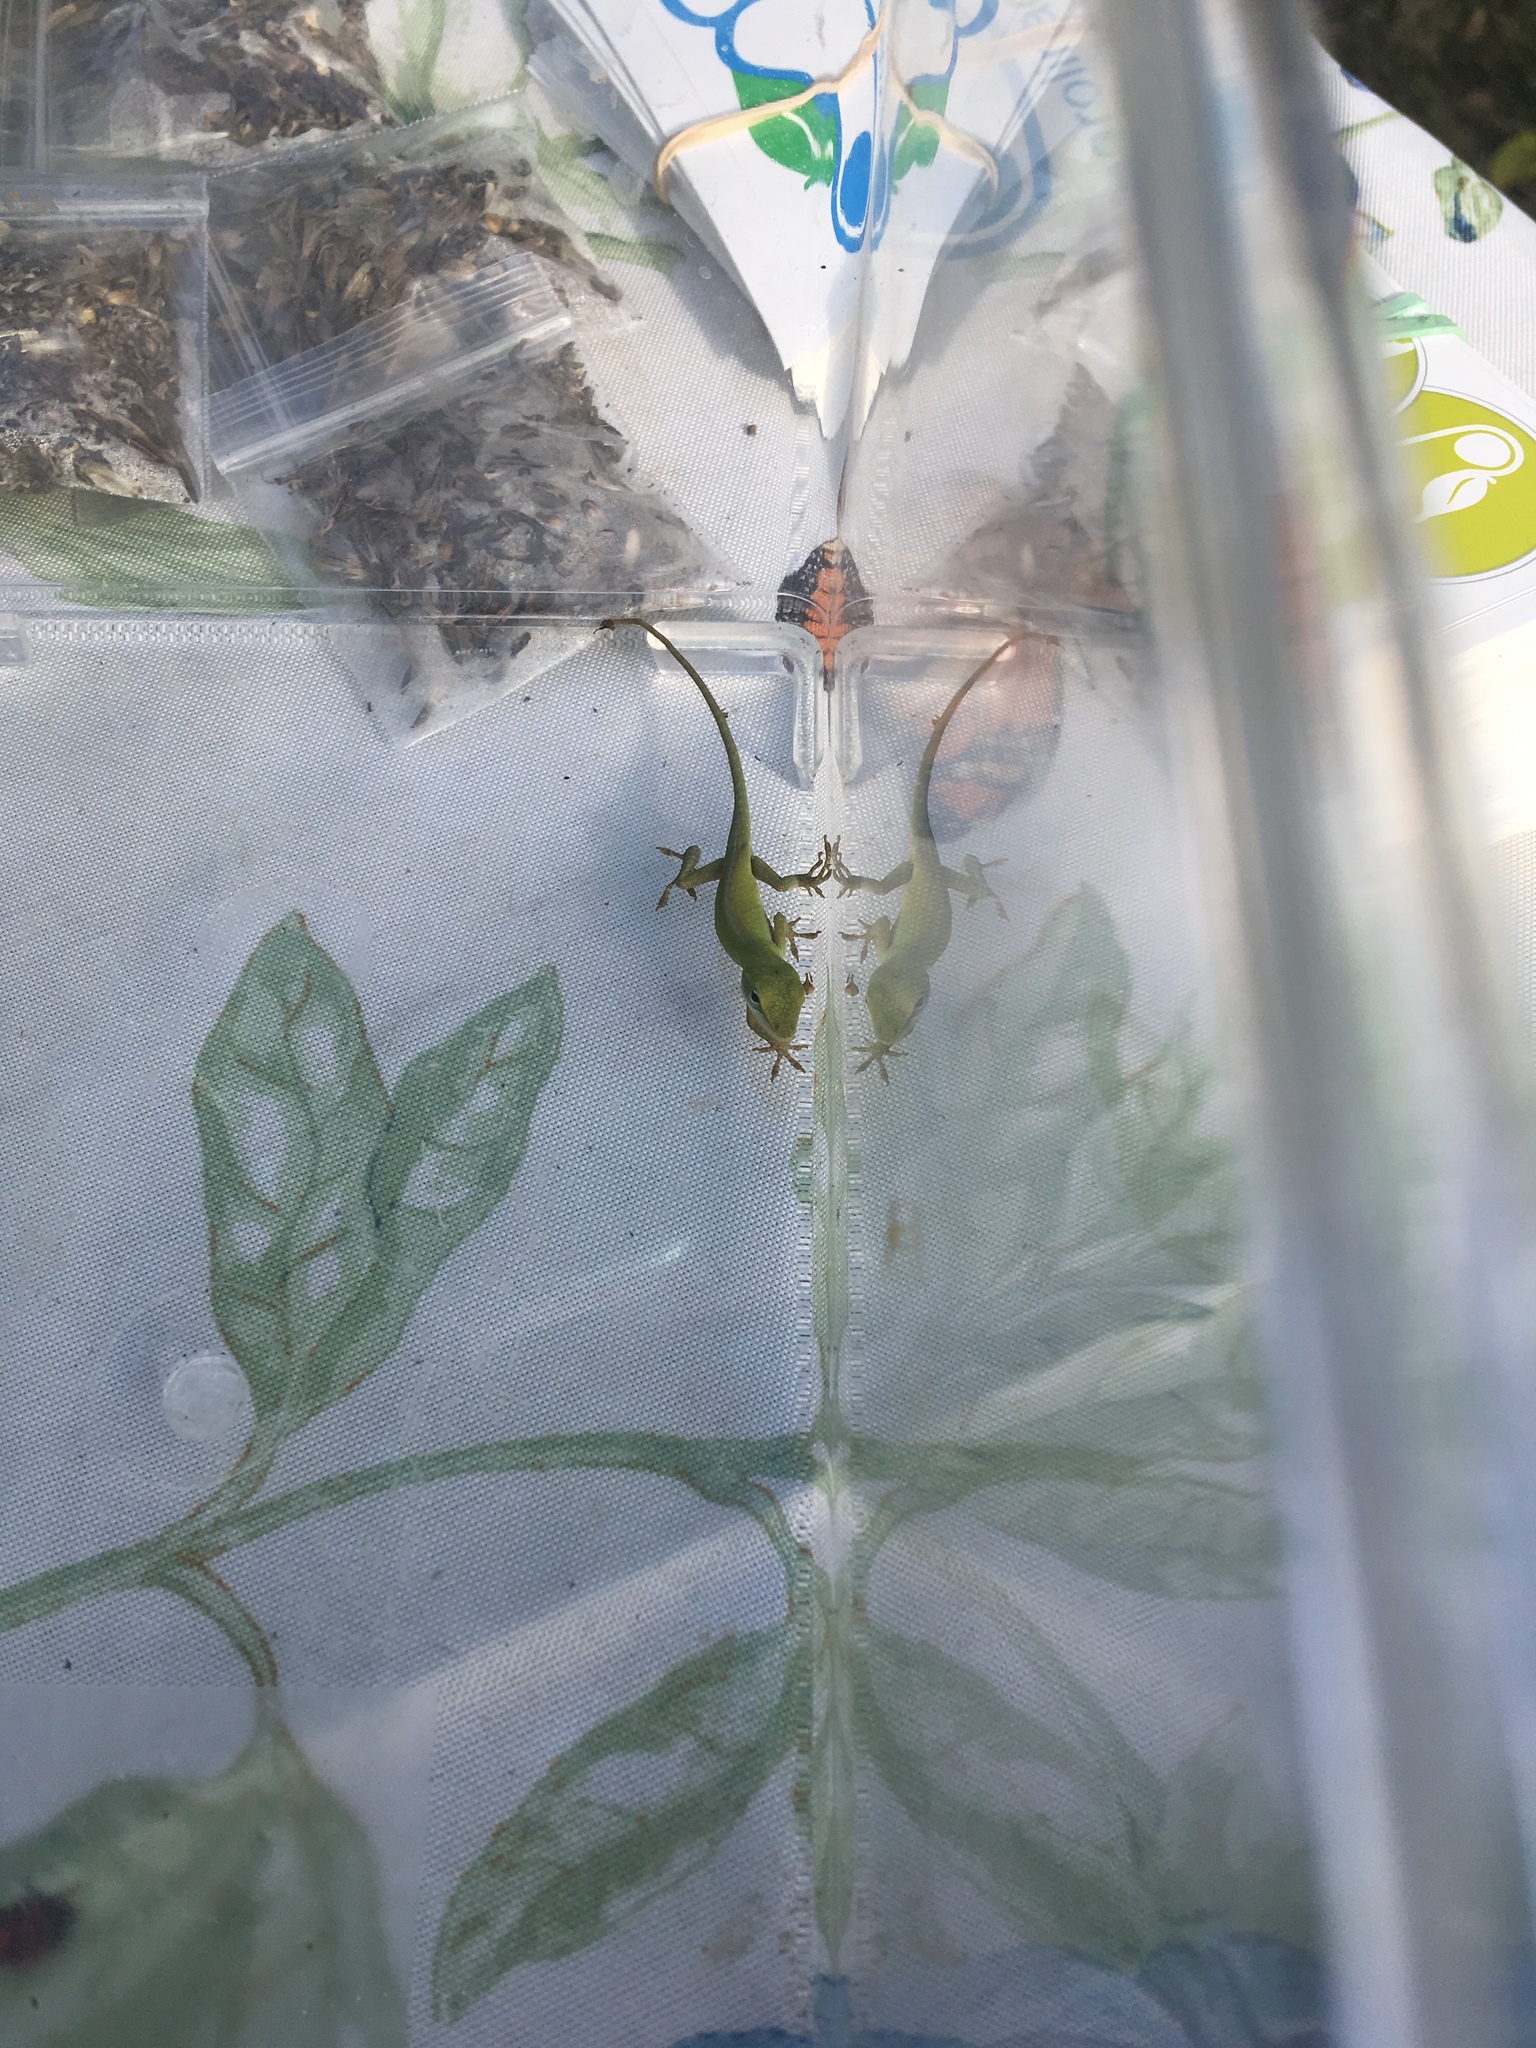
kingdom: Animalia
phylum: Chordata
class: Squamata
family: Dactyloidae
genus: Anolis
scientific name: Anolis carolinensis
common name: Green anole
